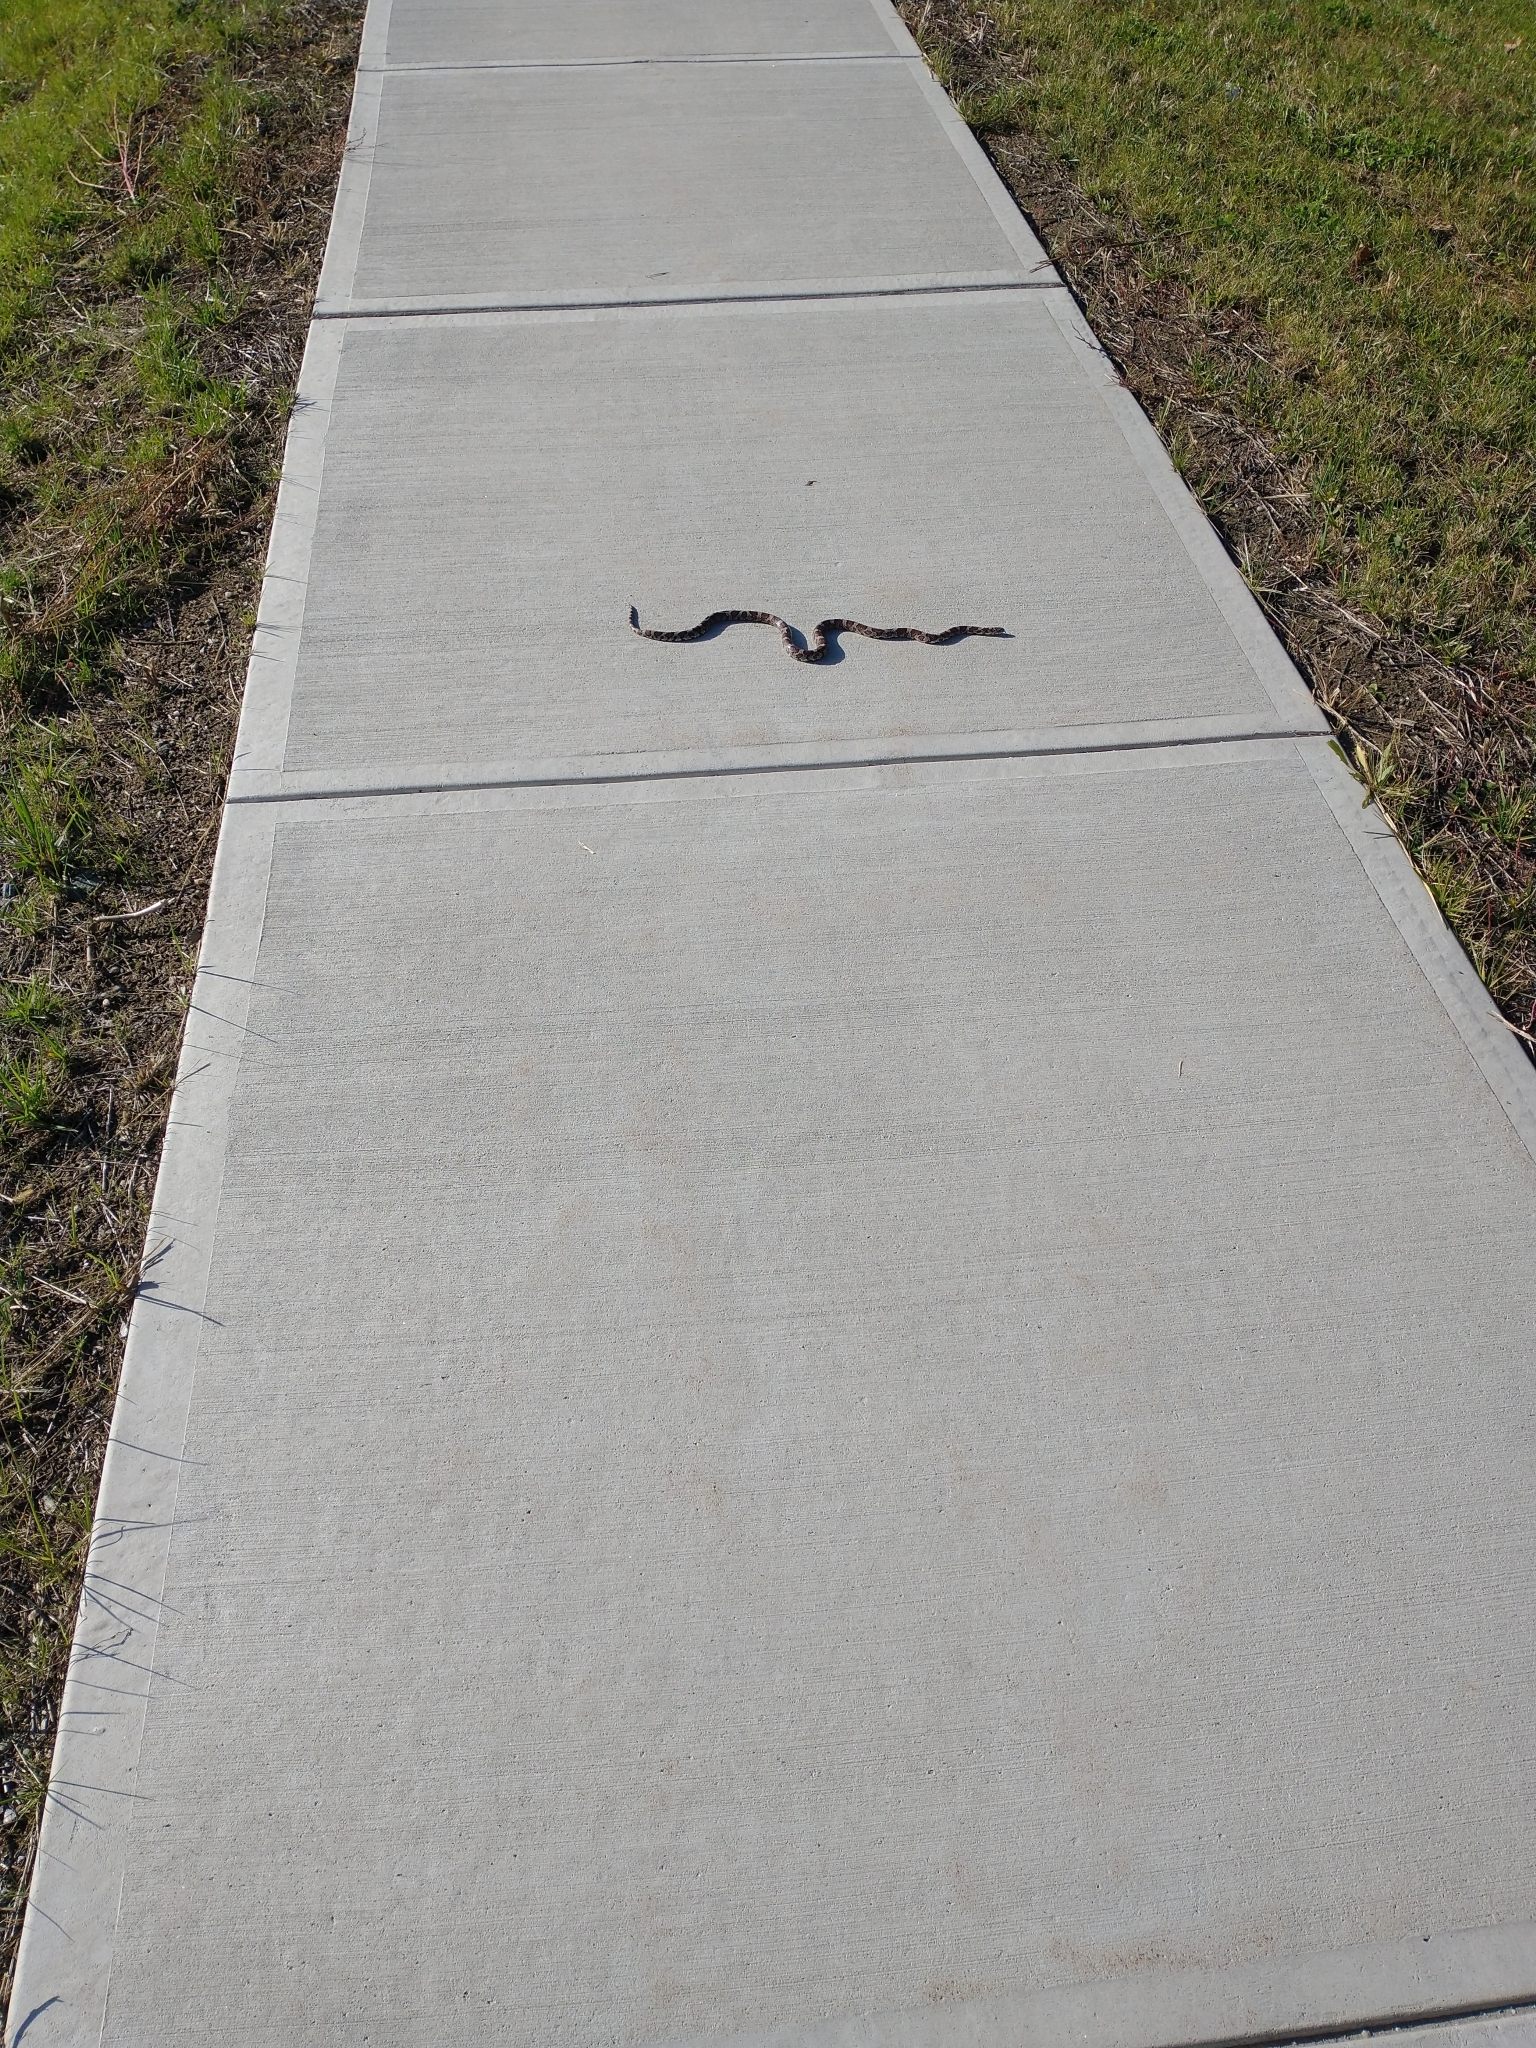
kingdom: Animalia
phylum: Chordata
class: Squamata
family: Colubridae
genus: Lampropeltis
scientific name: Lampropeltis triangulum
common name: Eastern milksnake
